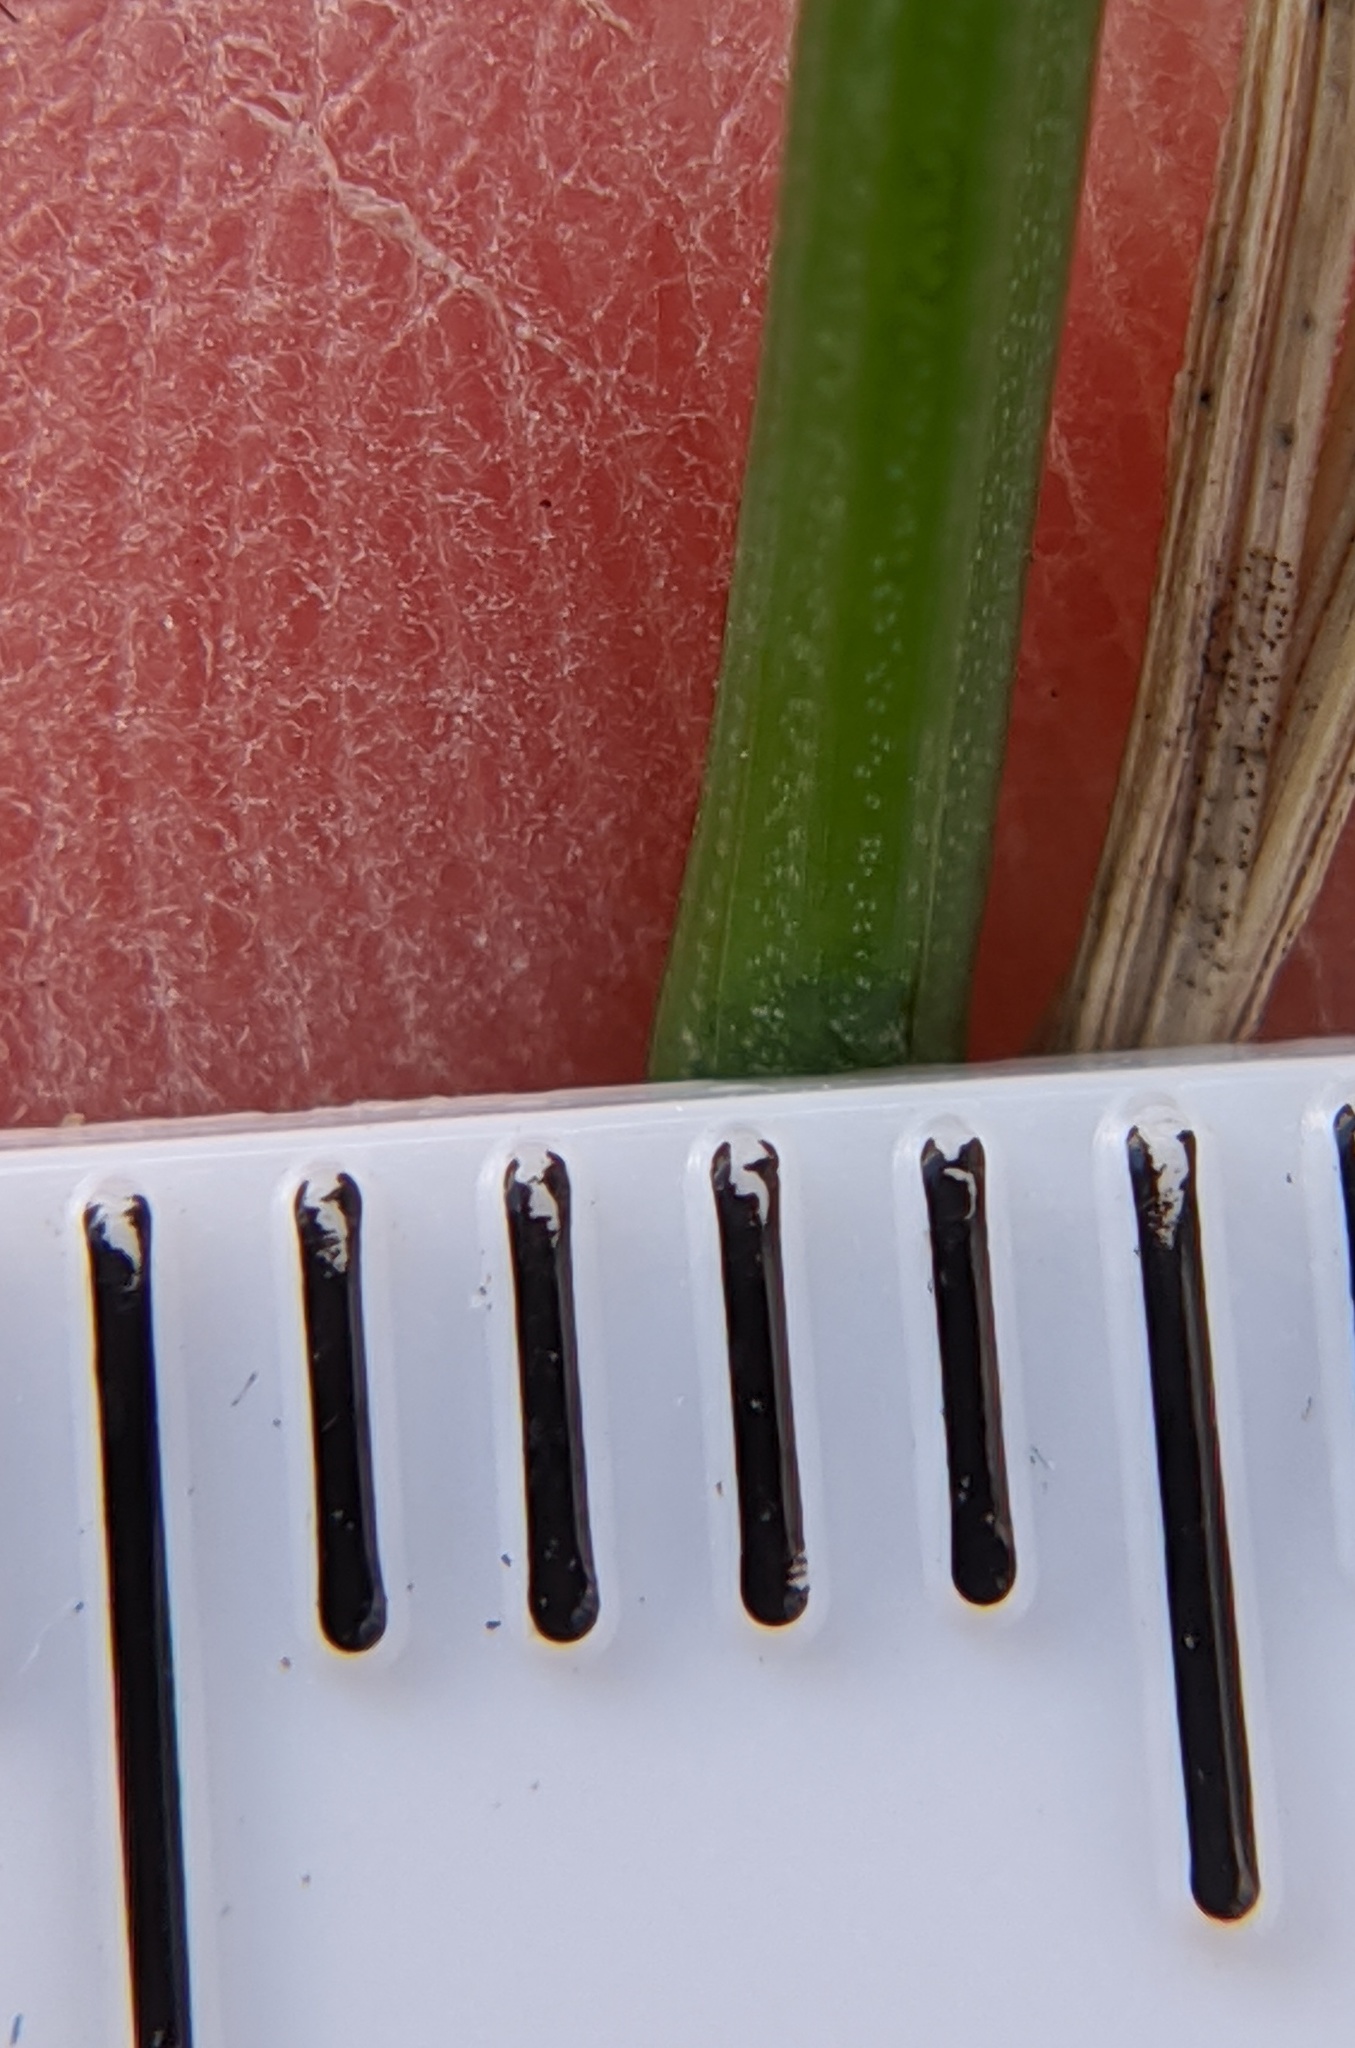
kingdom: Plantae
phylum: Tracheophyta
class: Liliopsida
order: Asparagales
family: Asparagaceae
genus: Muscari
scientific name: Muscari neglectum
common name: Grape-hyacinth
